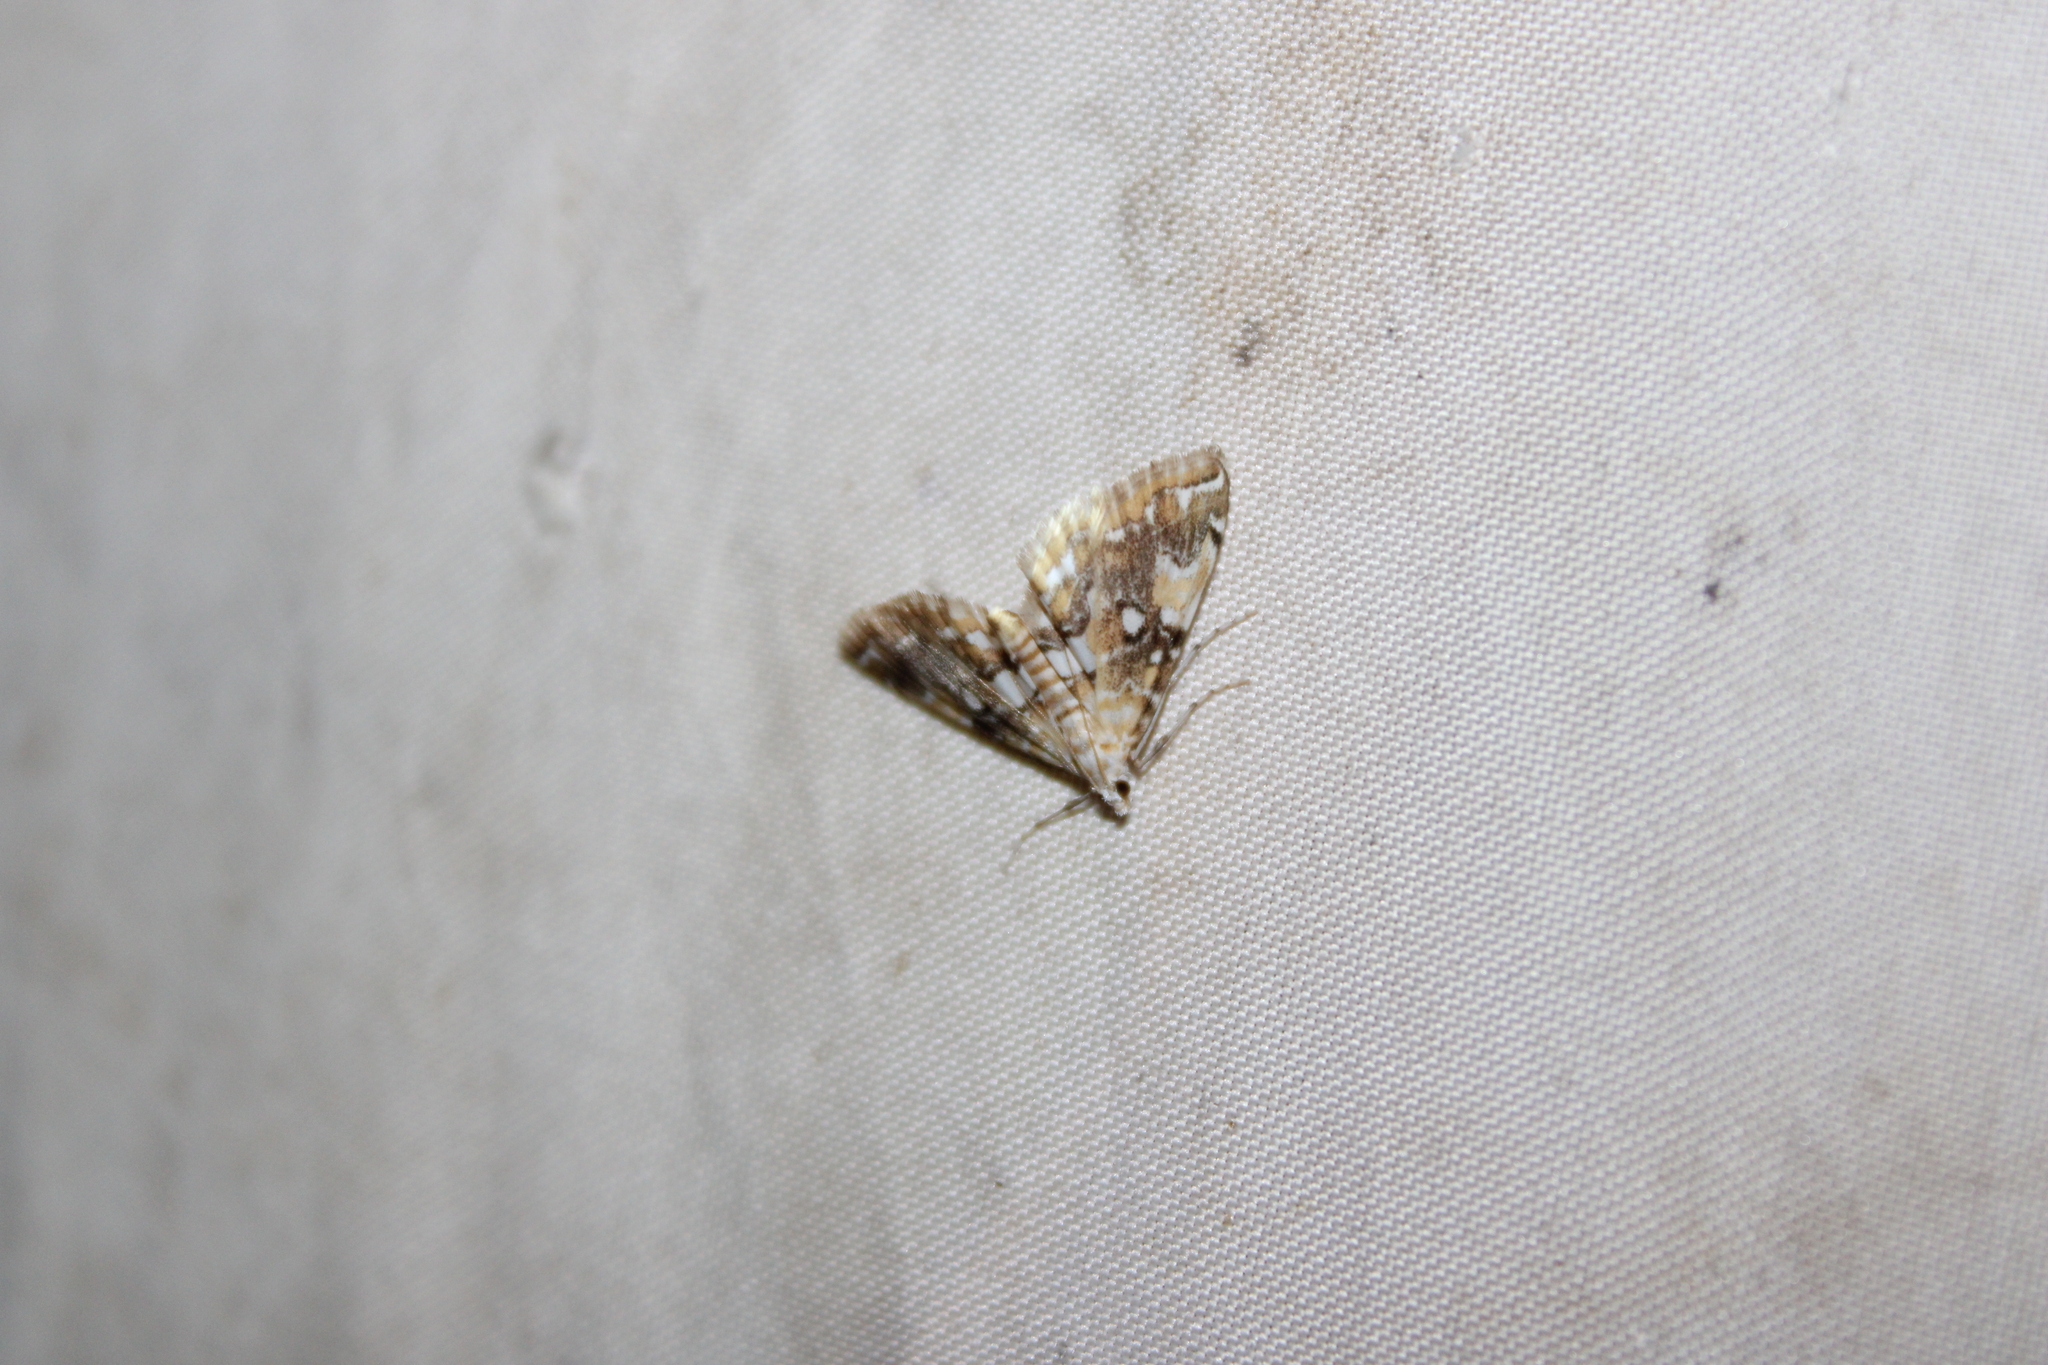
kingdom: Animalia
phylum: Arthropoda
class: Insecta
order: Lepidoptera
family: Crambidae
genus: Elophila
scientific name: Elophila faulalis
